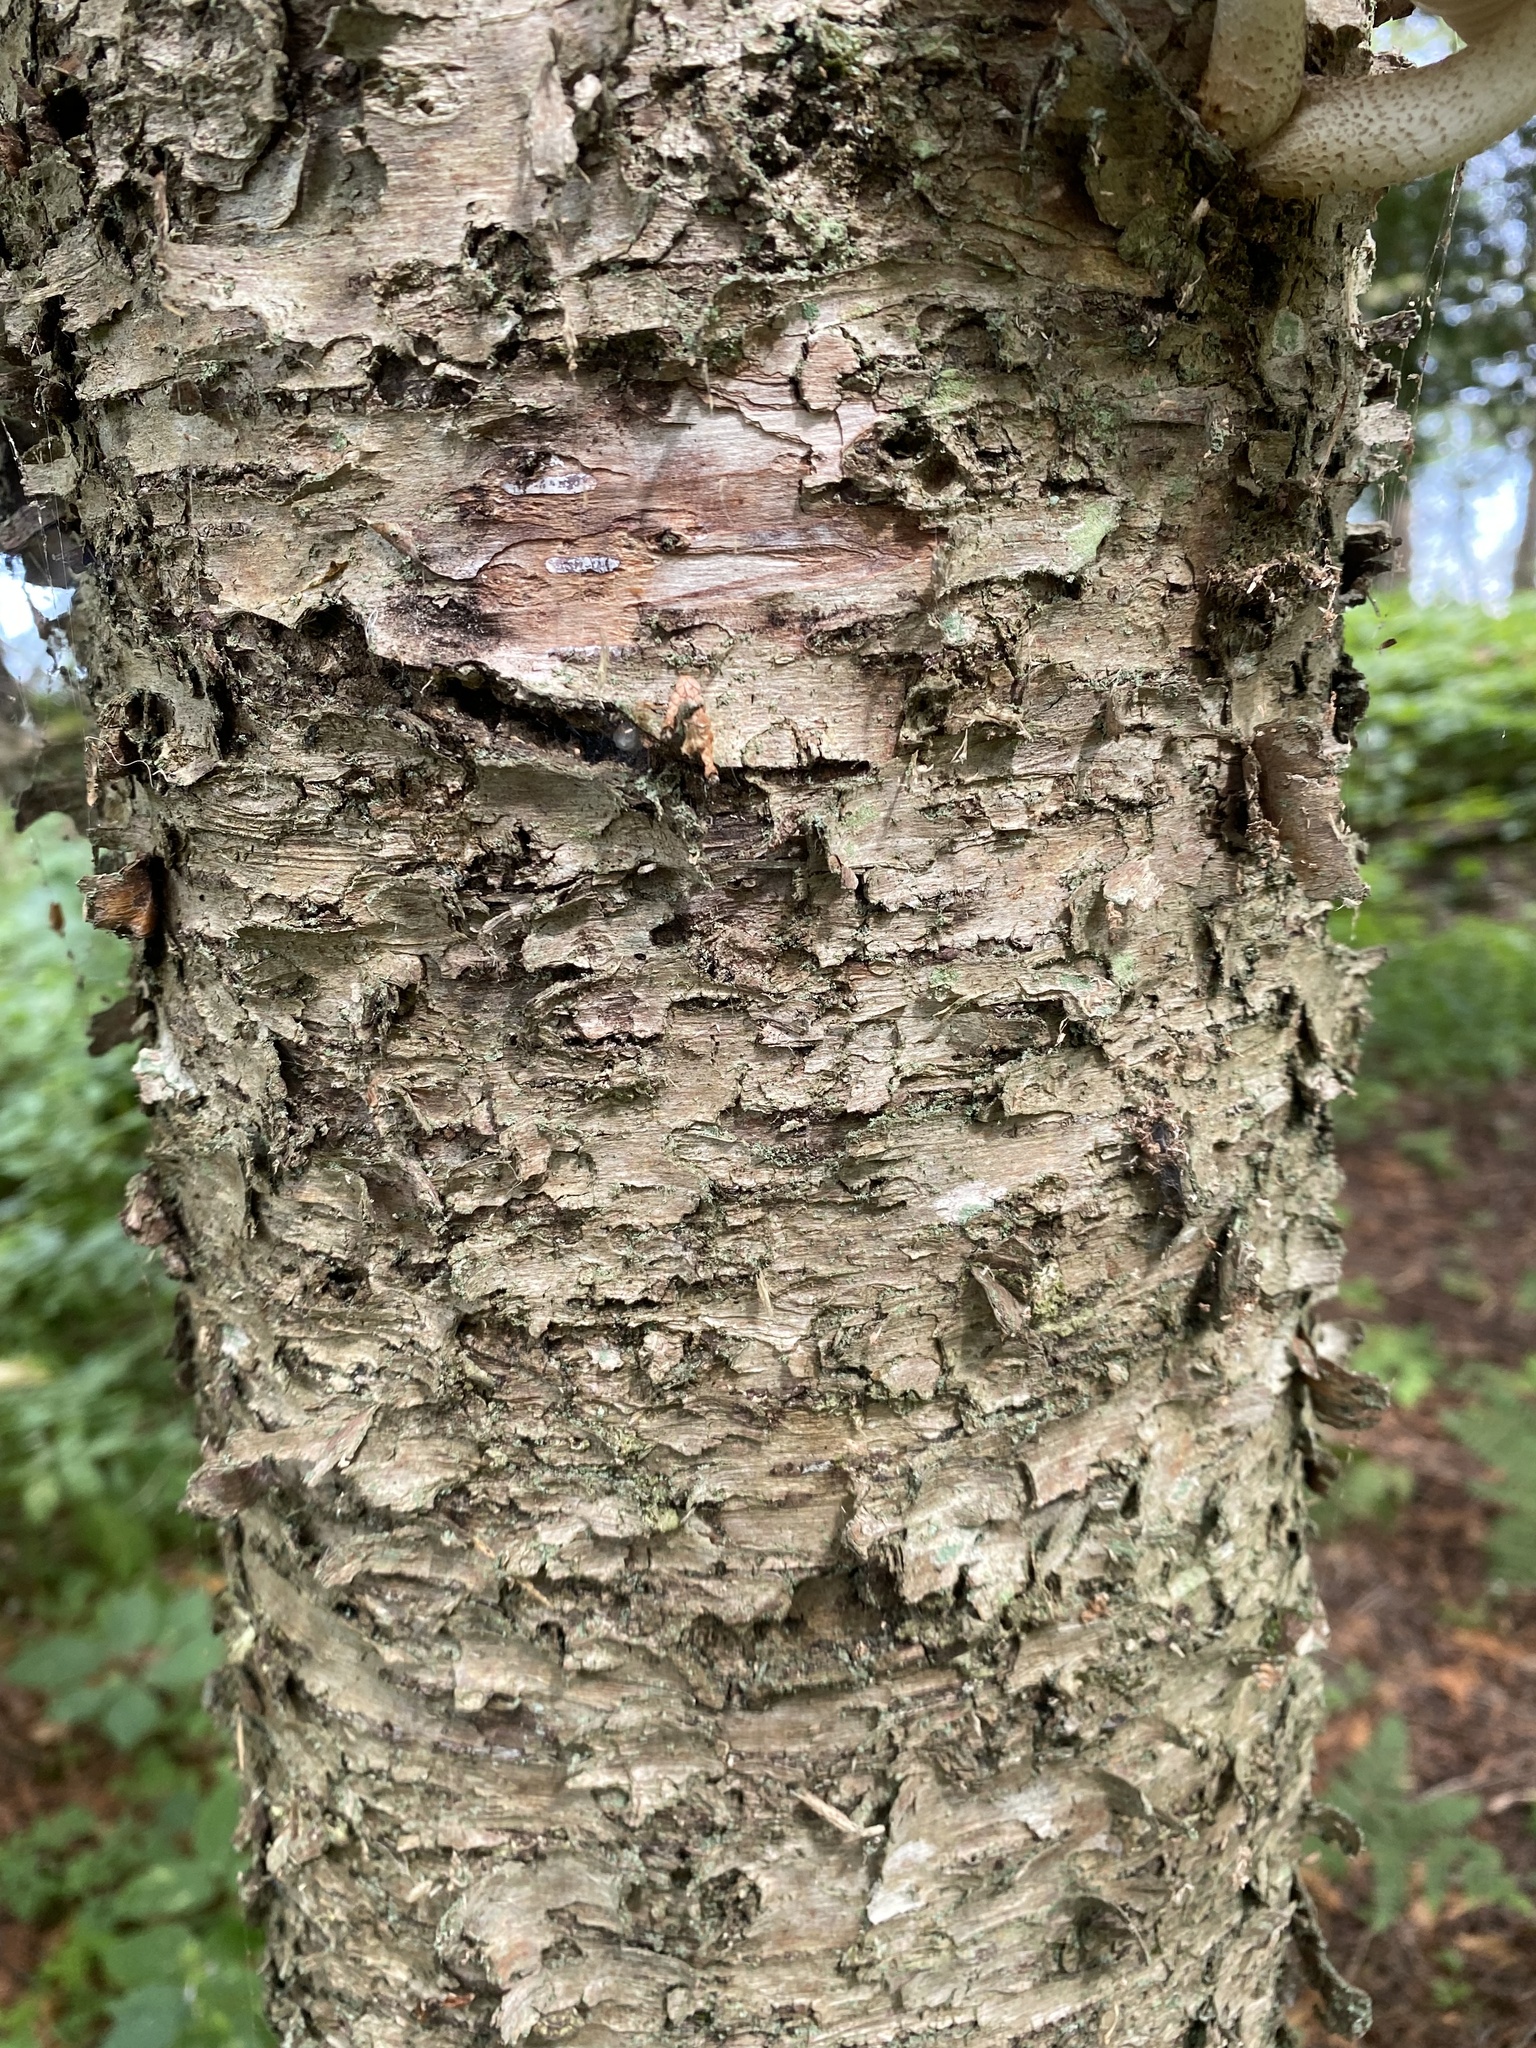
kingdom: Plantae
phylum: Tracheophyta
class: Magnoliopsida
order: Fagales
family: Betulaceae
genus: Betula
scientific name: Betula alleghaniensis
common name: Yellow birch
